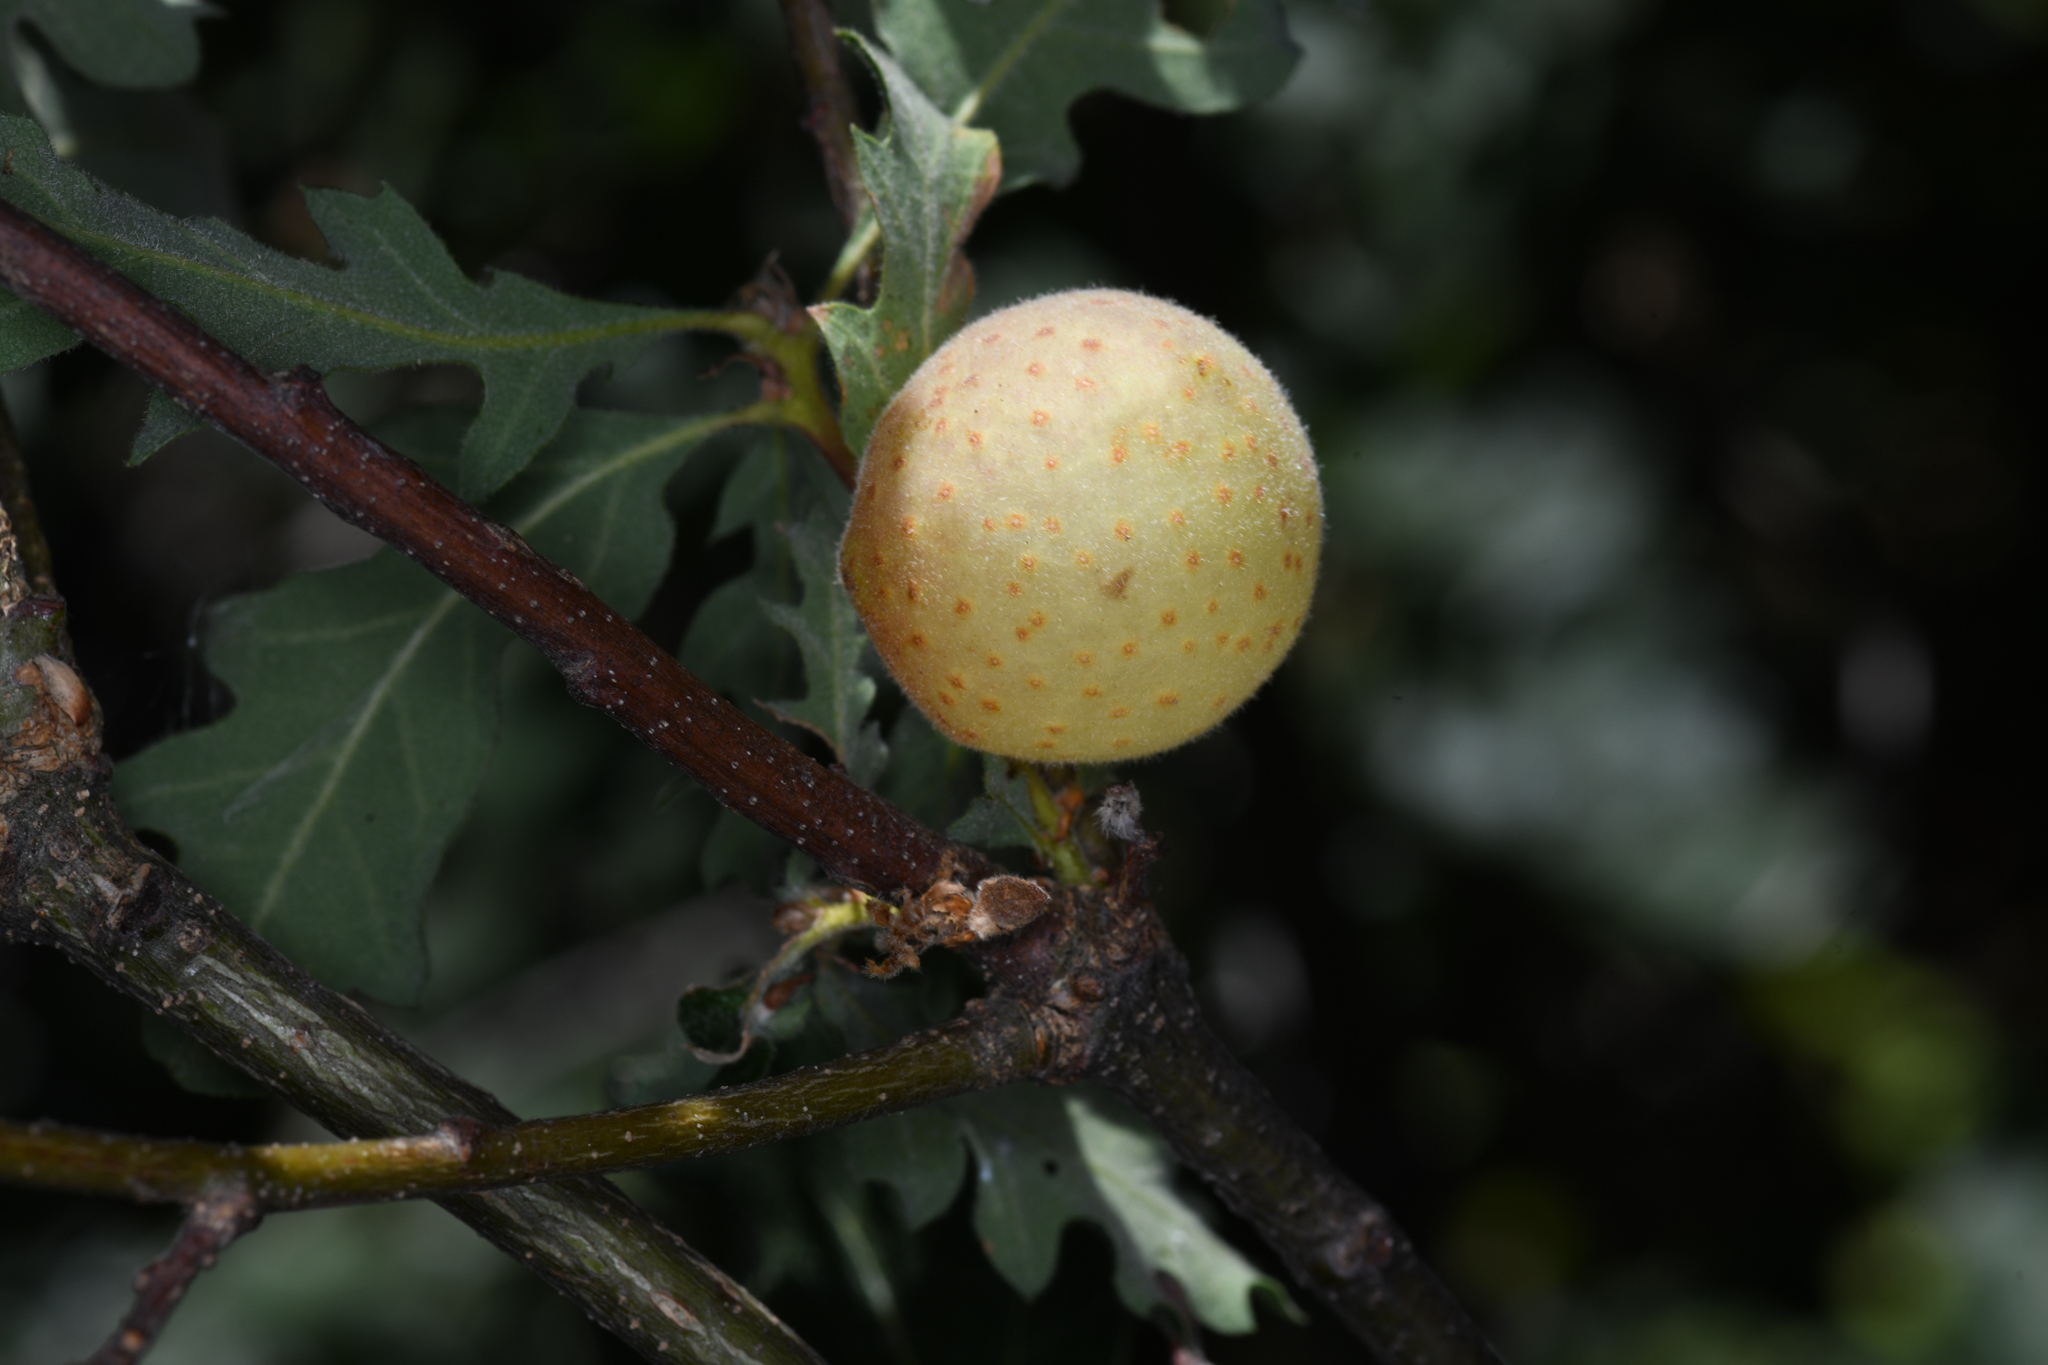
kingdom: Animalia
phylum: Arthropoda
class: Insecta
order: Hymenoptera
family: Cynipidae
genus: Cynips
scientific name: Cynips
